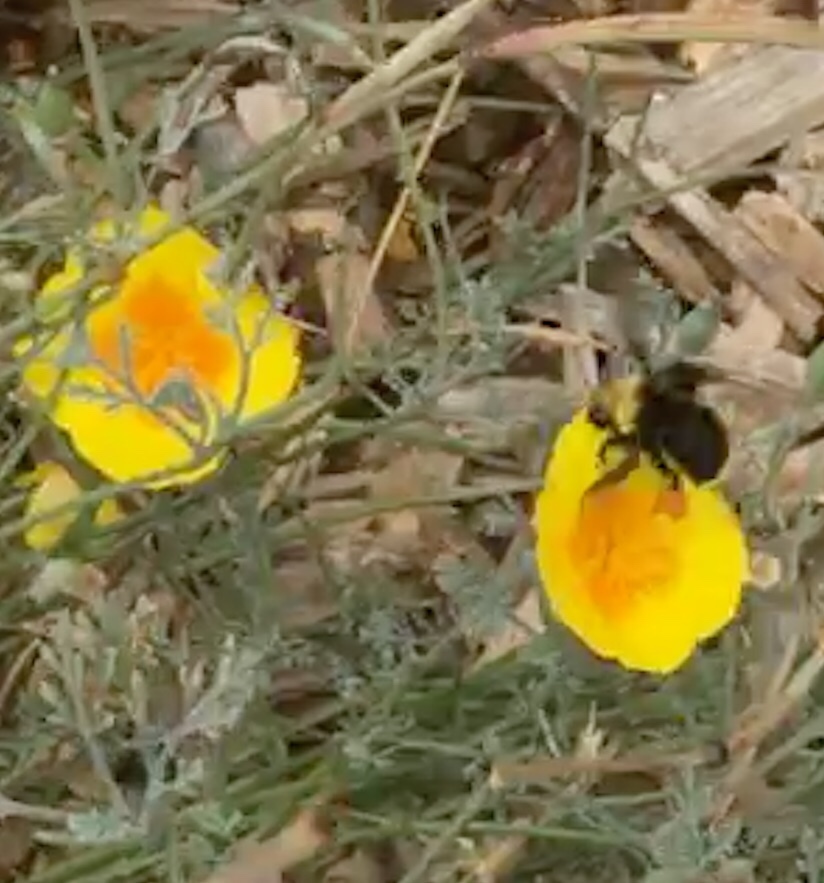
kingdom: Animalia
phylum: Arthropoda
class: Insecta
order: Hymenoptera
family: Apidae
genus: Bombus
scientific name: Bombus vosnesenskii
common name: Vosnesensky bumble bee
